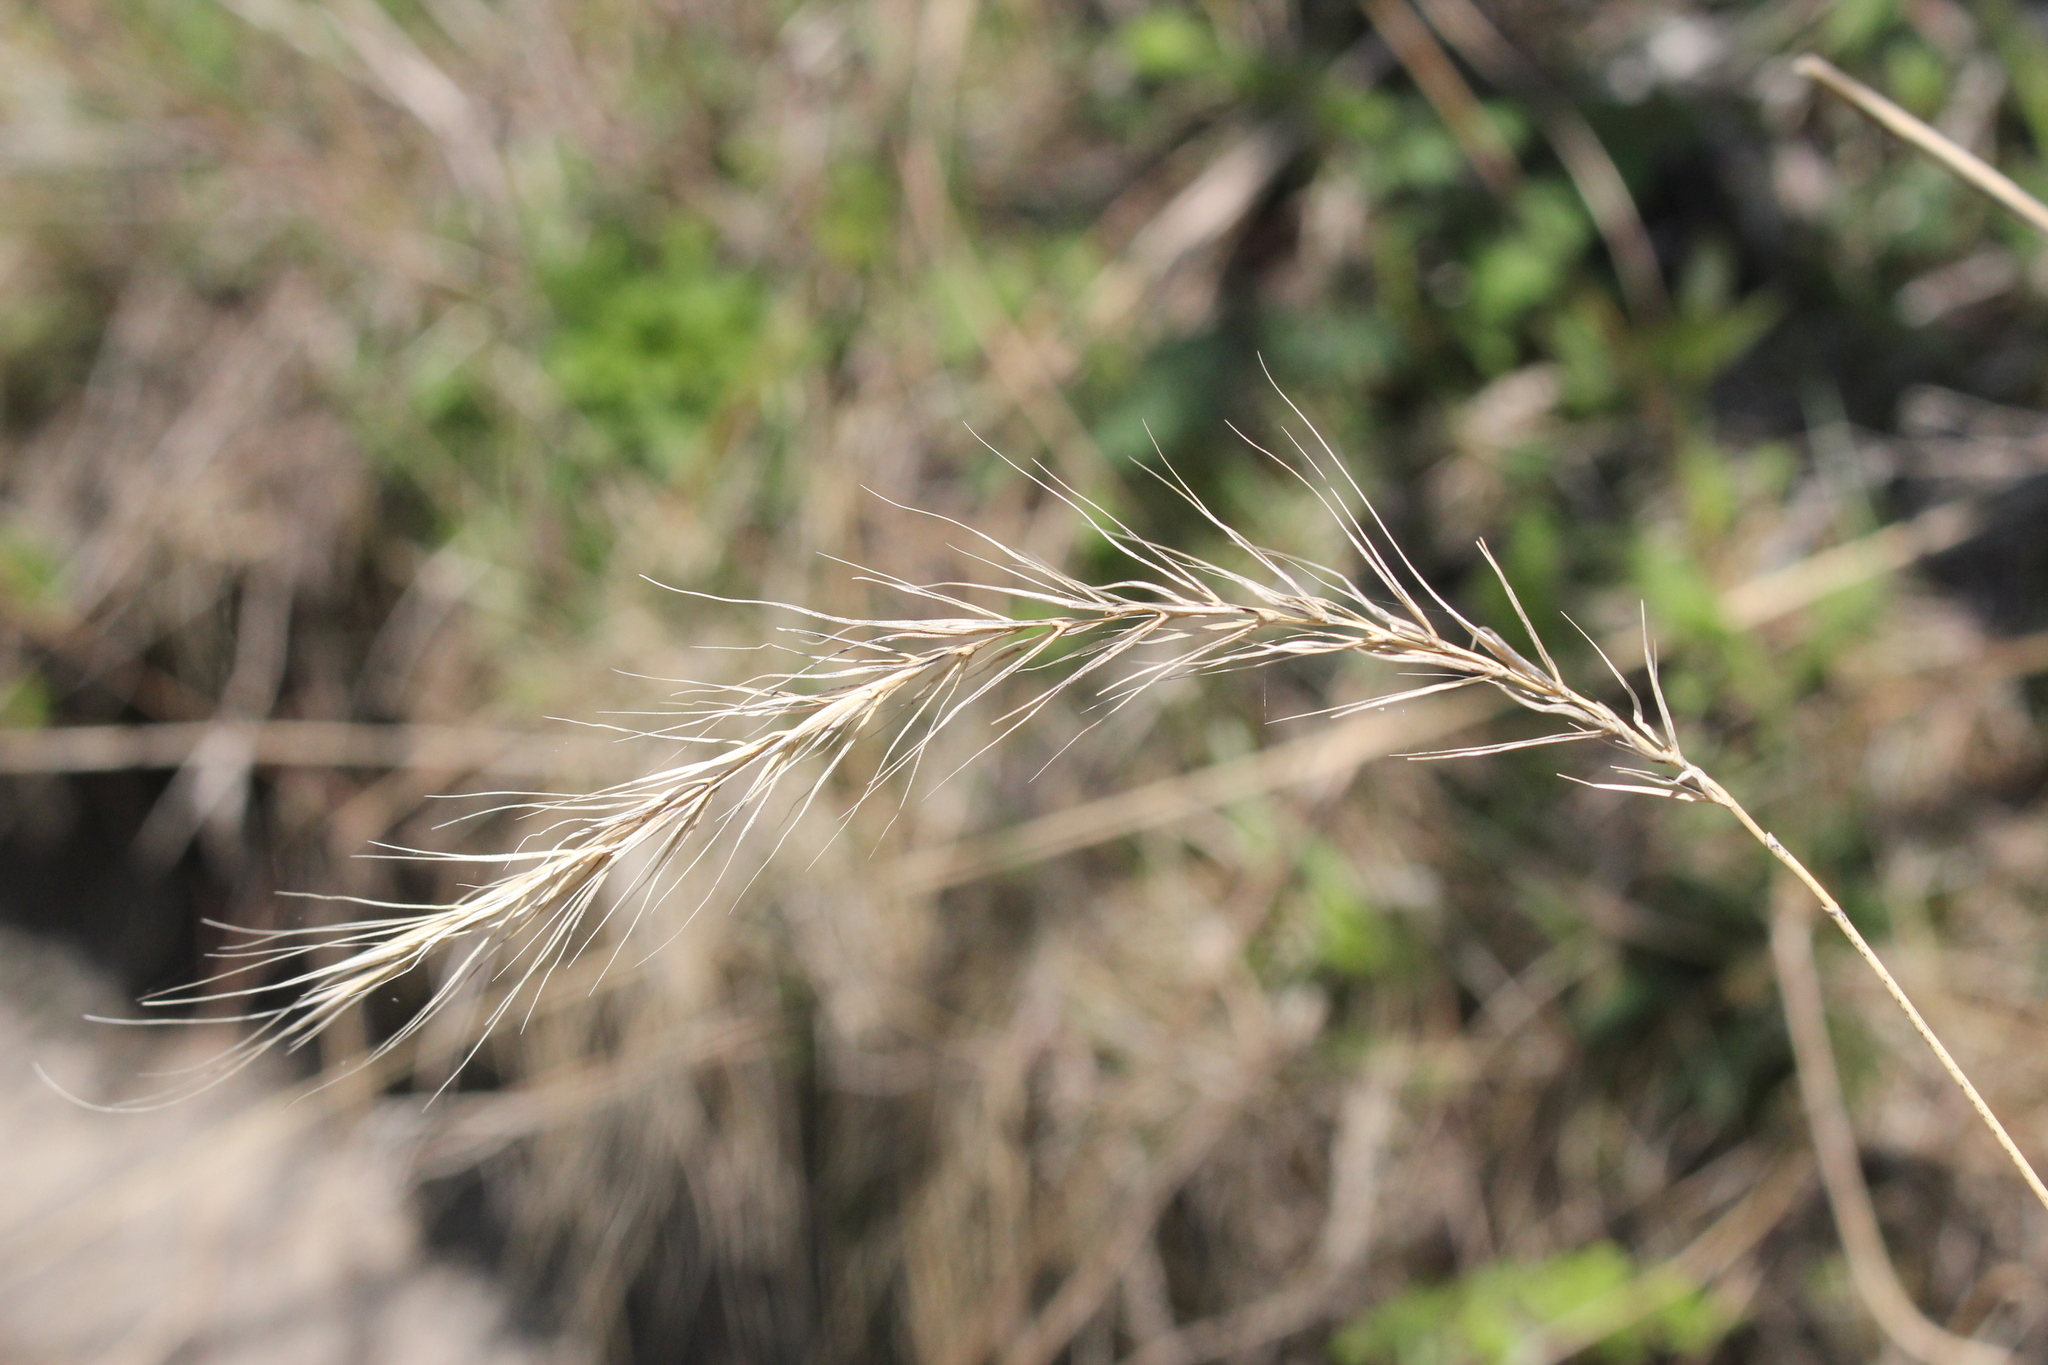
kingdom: Plantae
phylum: Tracheophyta
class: Liliopsida
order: Poales
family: Poaceae
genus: Elymus
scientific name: Elymus riparius
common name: Eastern riverbank wild rye
